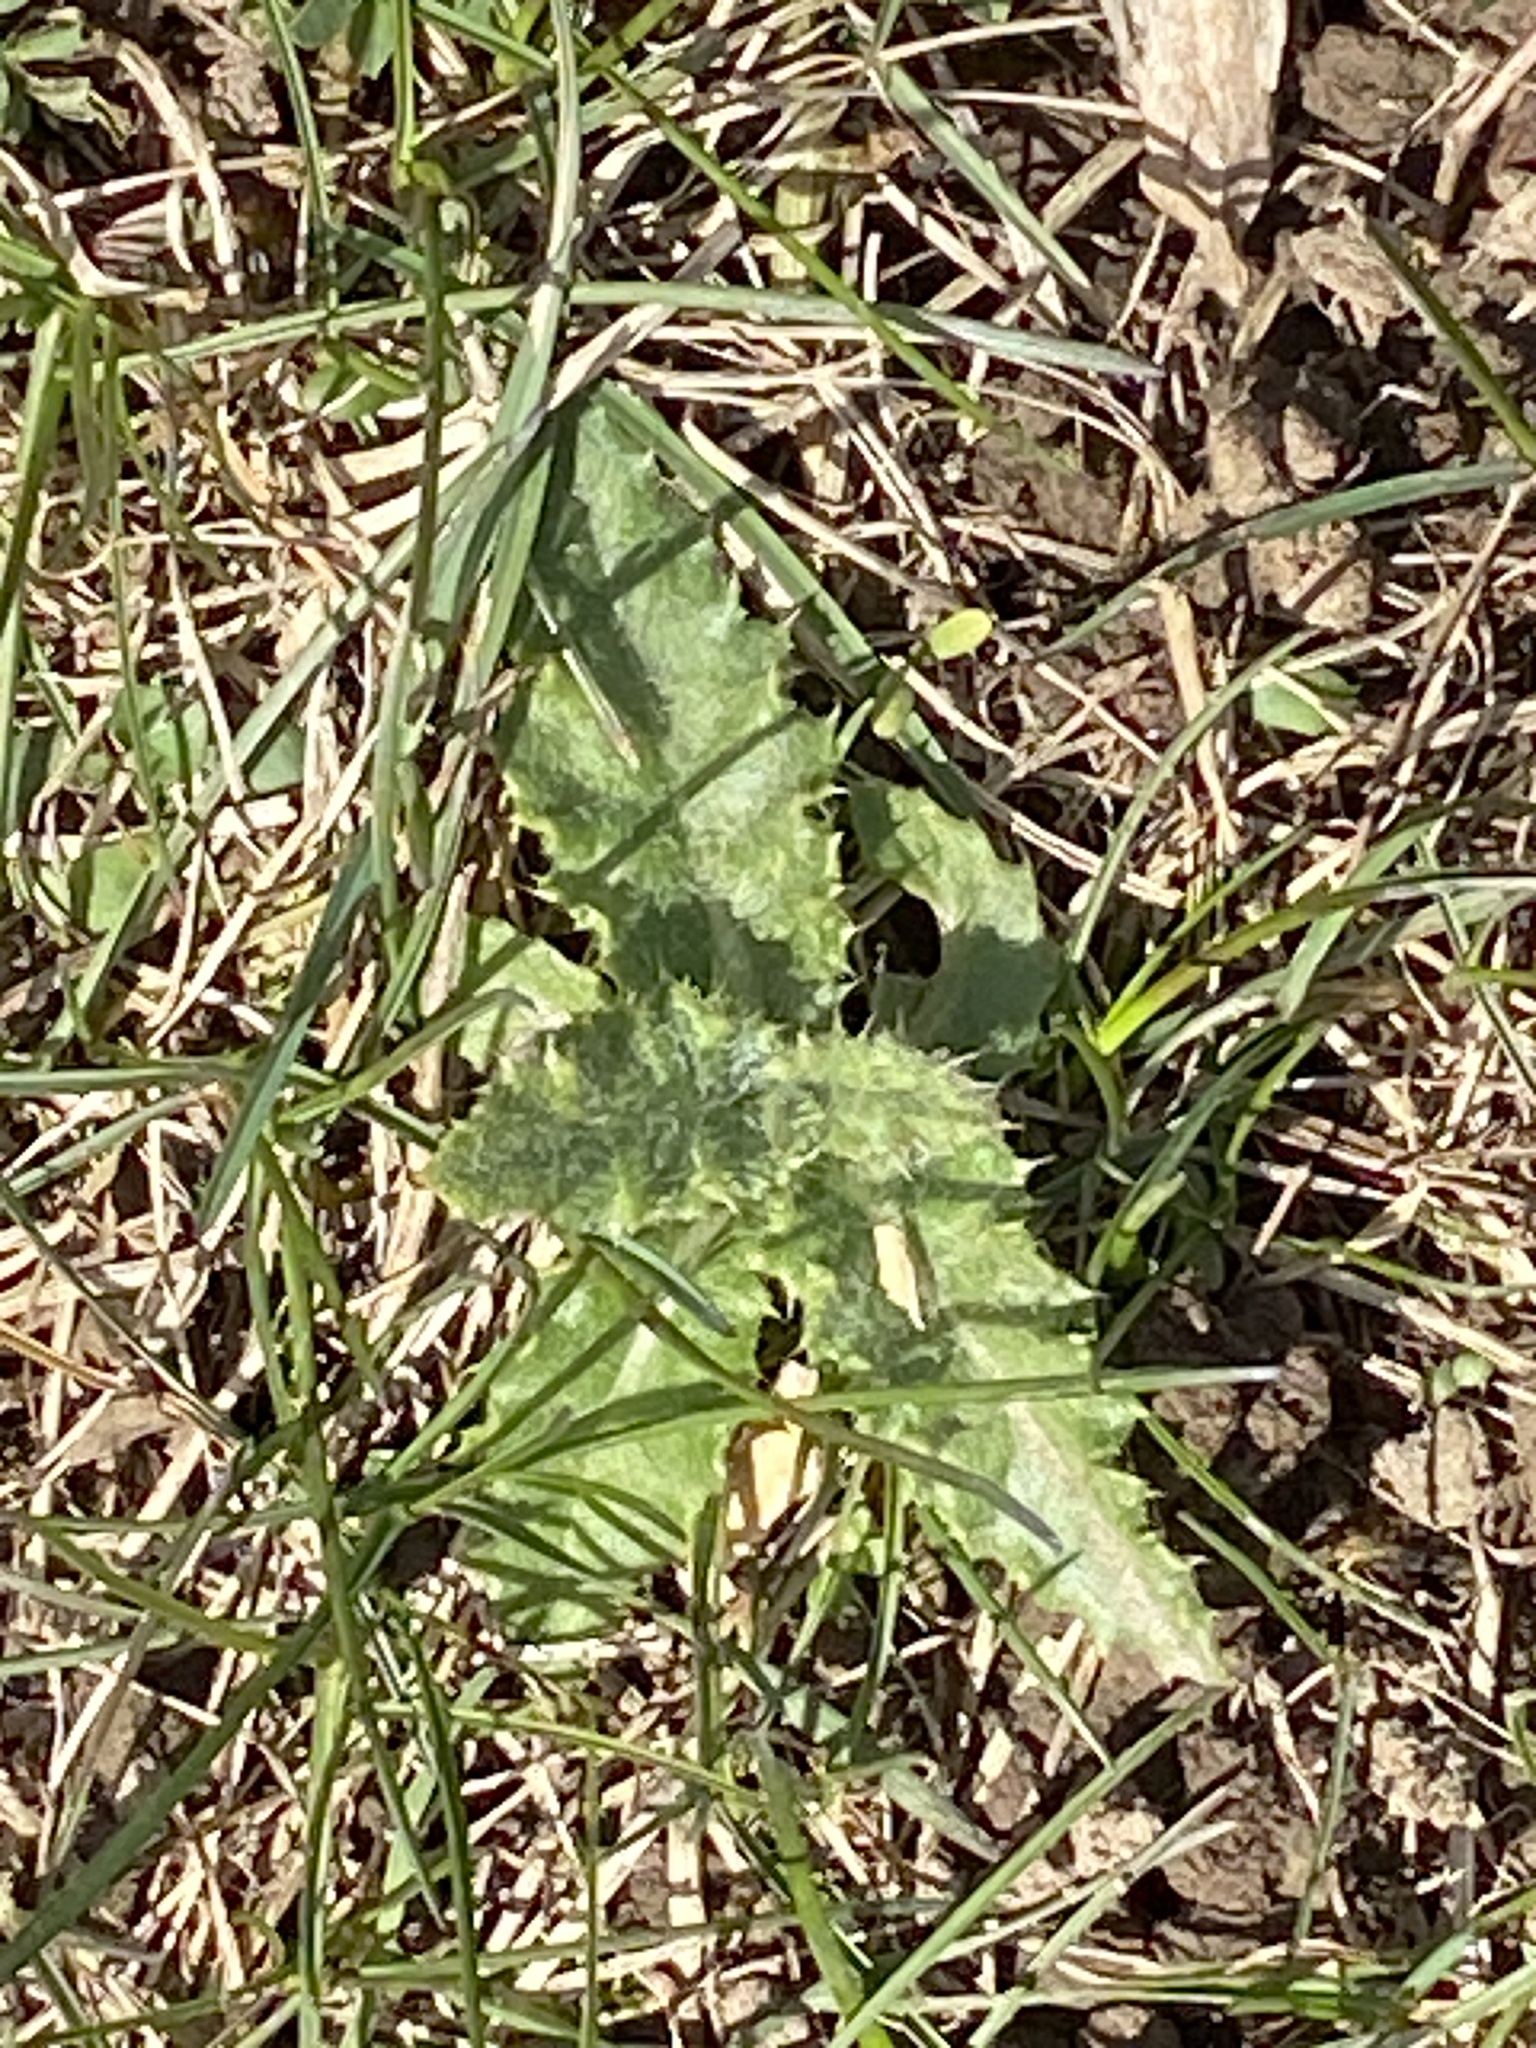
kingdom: Plantae
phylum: Tracheophyta
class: Magnoliopsida
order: Asterales
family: Asteraceae
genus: Cirsium
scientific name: Cirsium arvense
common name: Creeping thistle
